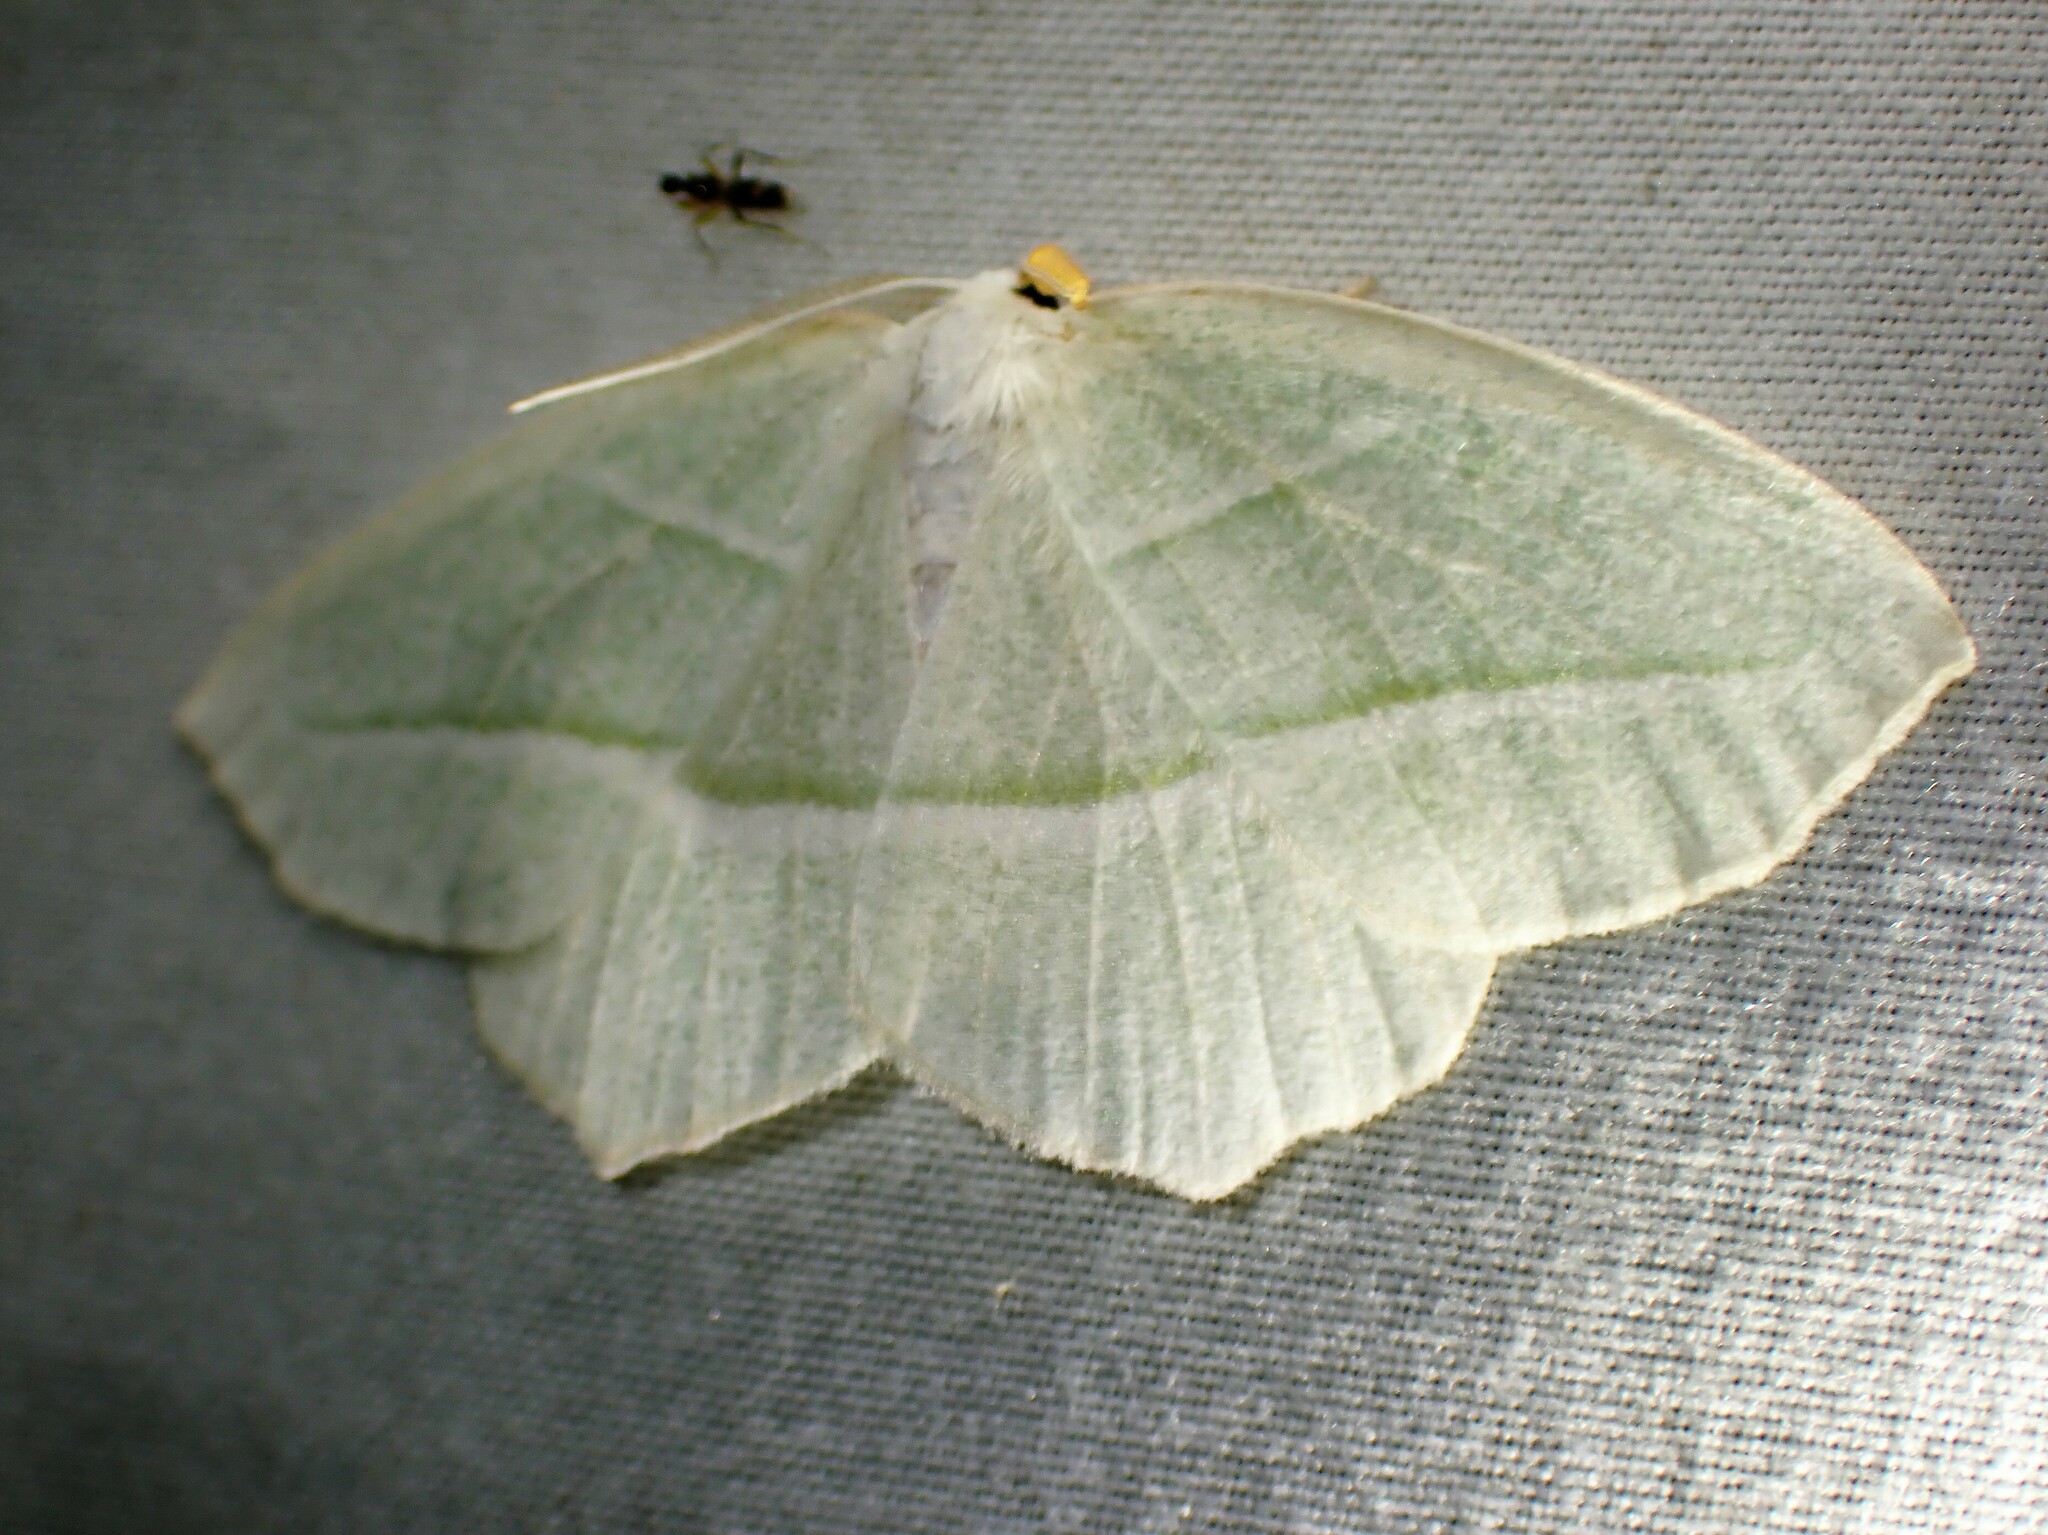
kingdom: Animalia
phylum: Arthropoda
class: Insecta
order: Lepidoptera
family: Geometridae
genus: Campaea
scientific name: Campaea perlata
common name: Fringed looper
